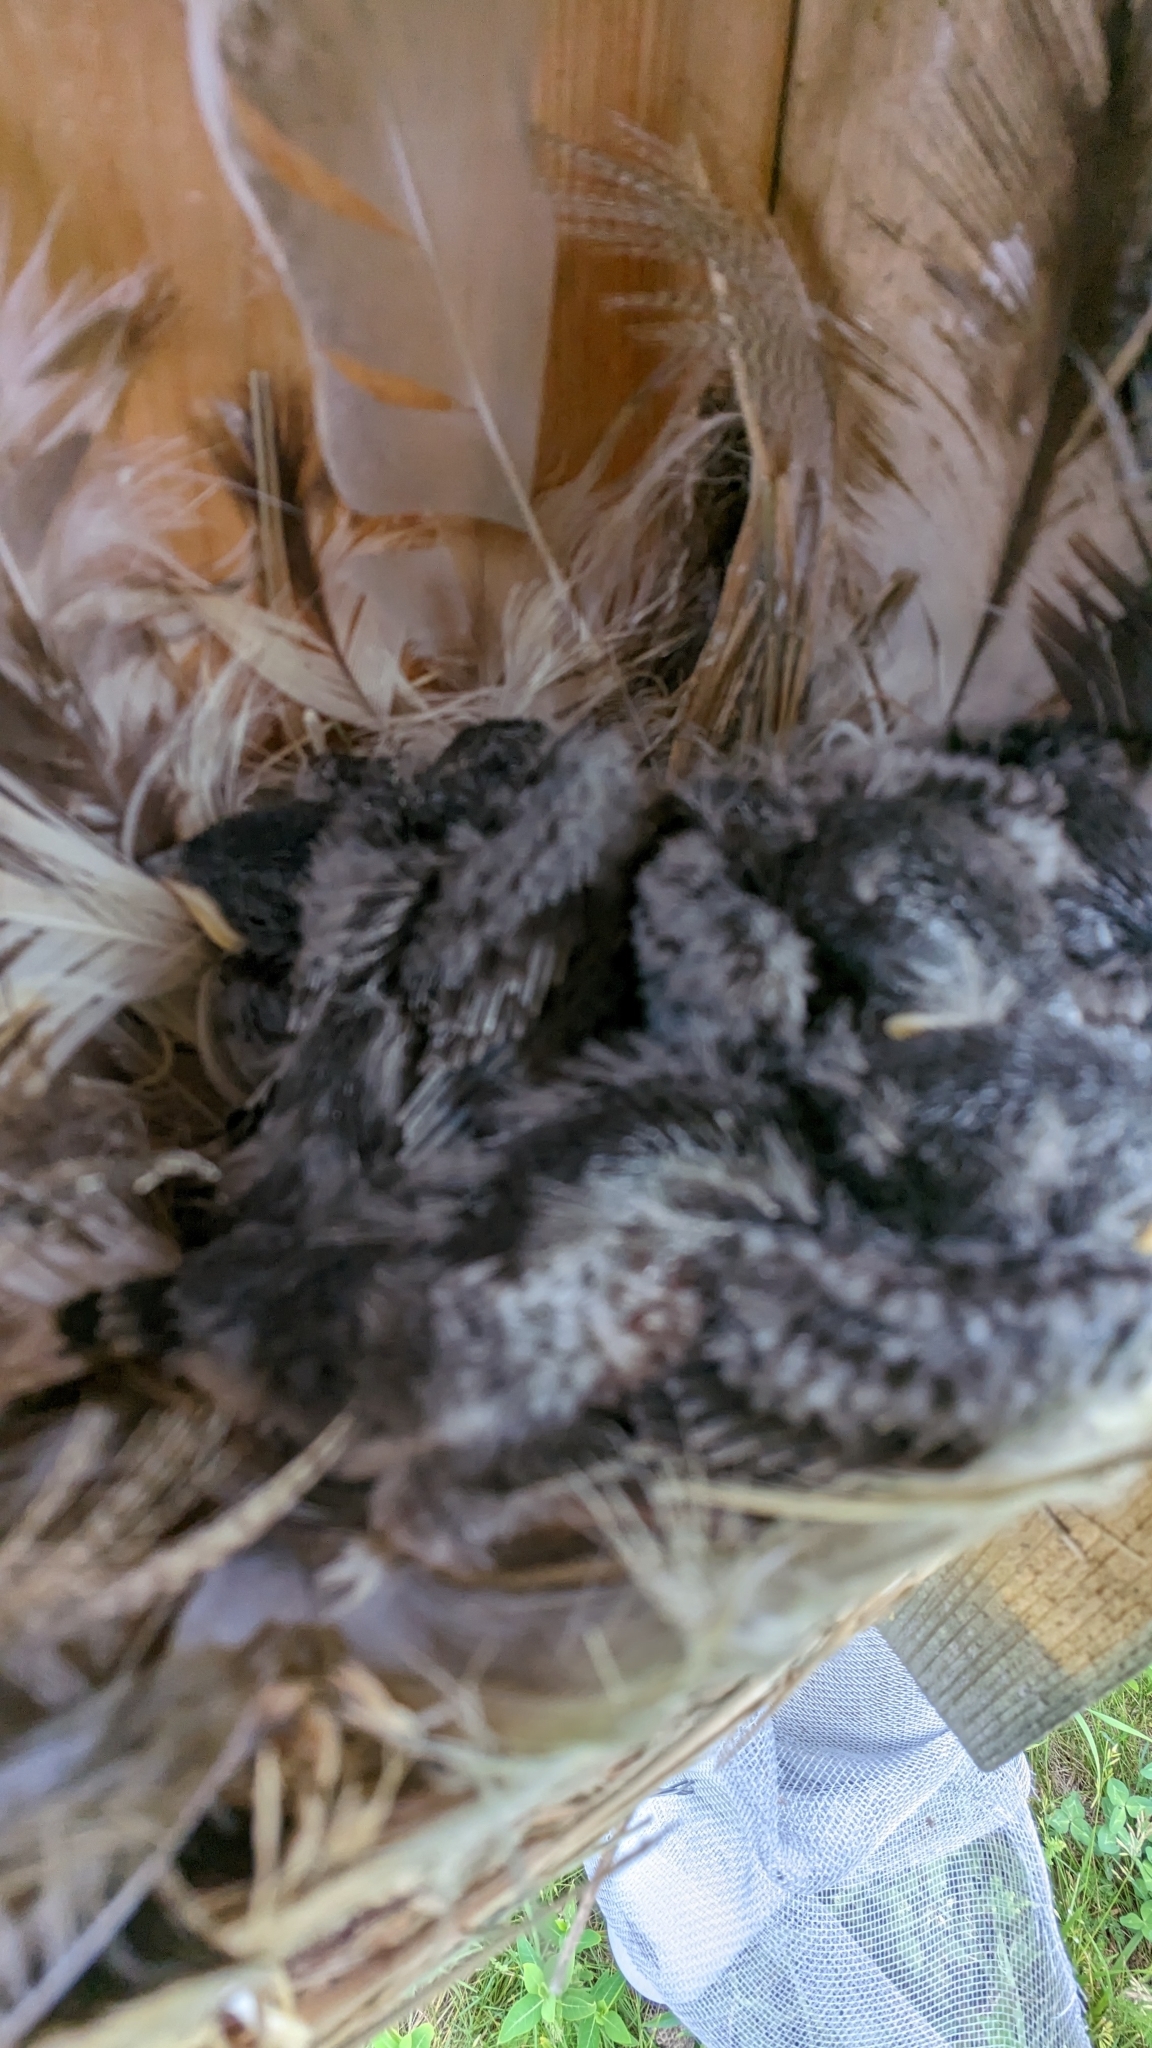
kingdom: Animalia
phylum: Chordata
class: Aves
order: Passeriformes
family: Hirundinidae
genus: Tachycineta
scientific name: Tachycineta bicolor
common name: Tree swallow
